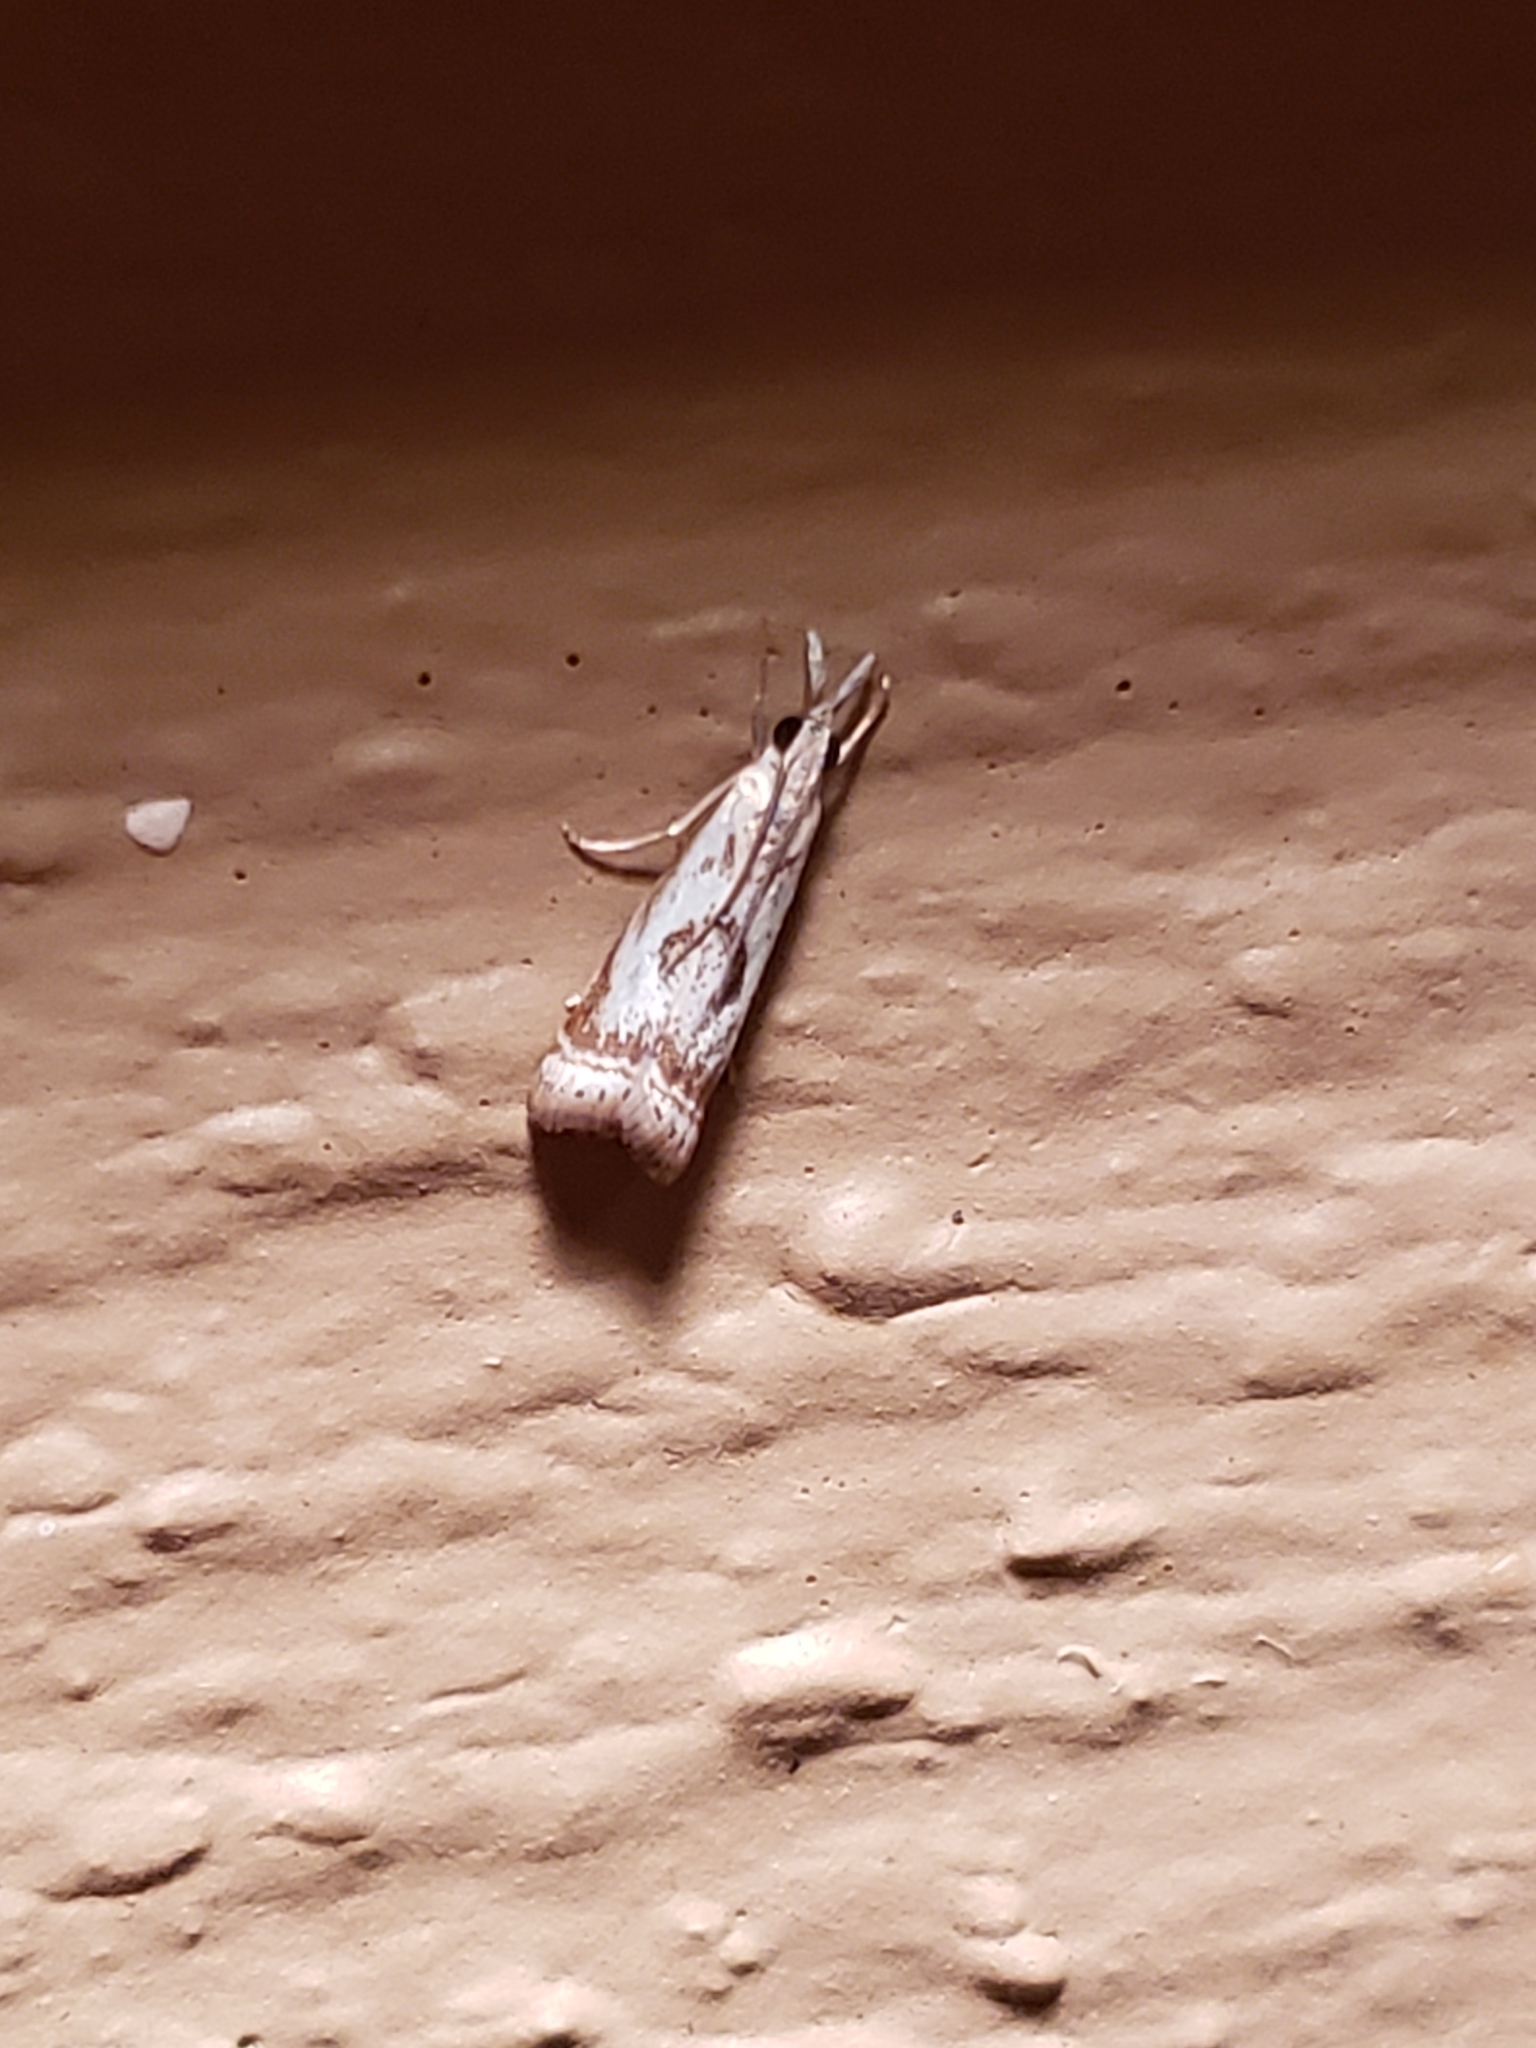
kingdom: Animalia
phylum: Arthropoda
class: Insecta
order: Lepidoptera
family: Crambidae
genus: Microcrambus
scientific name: Microcrambus elegans
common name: Elegant grass-veneer
